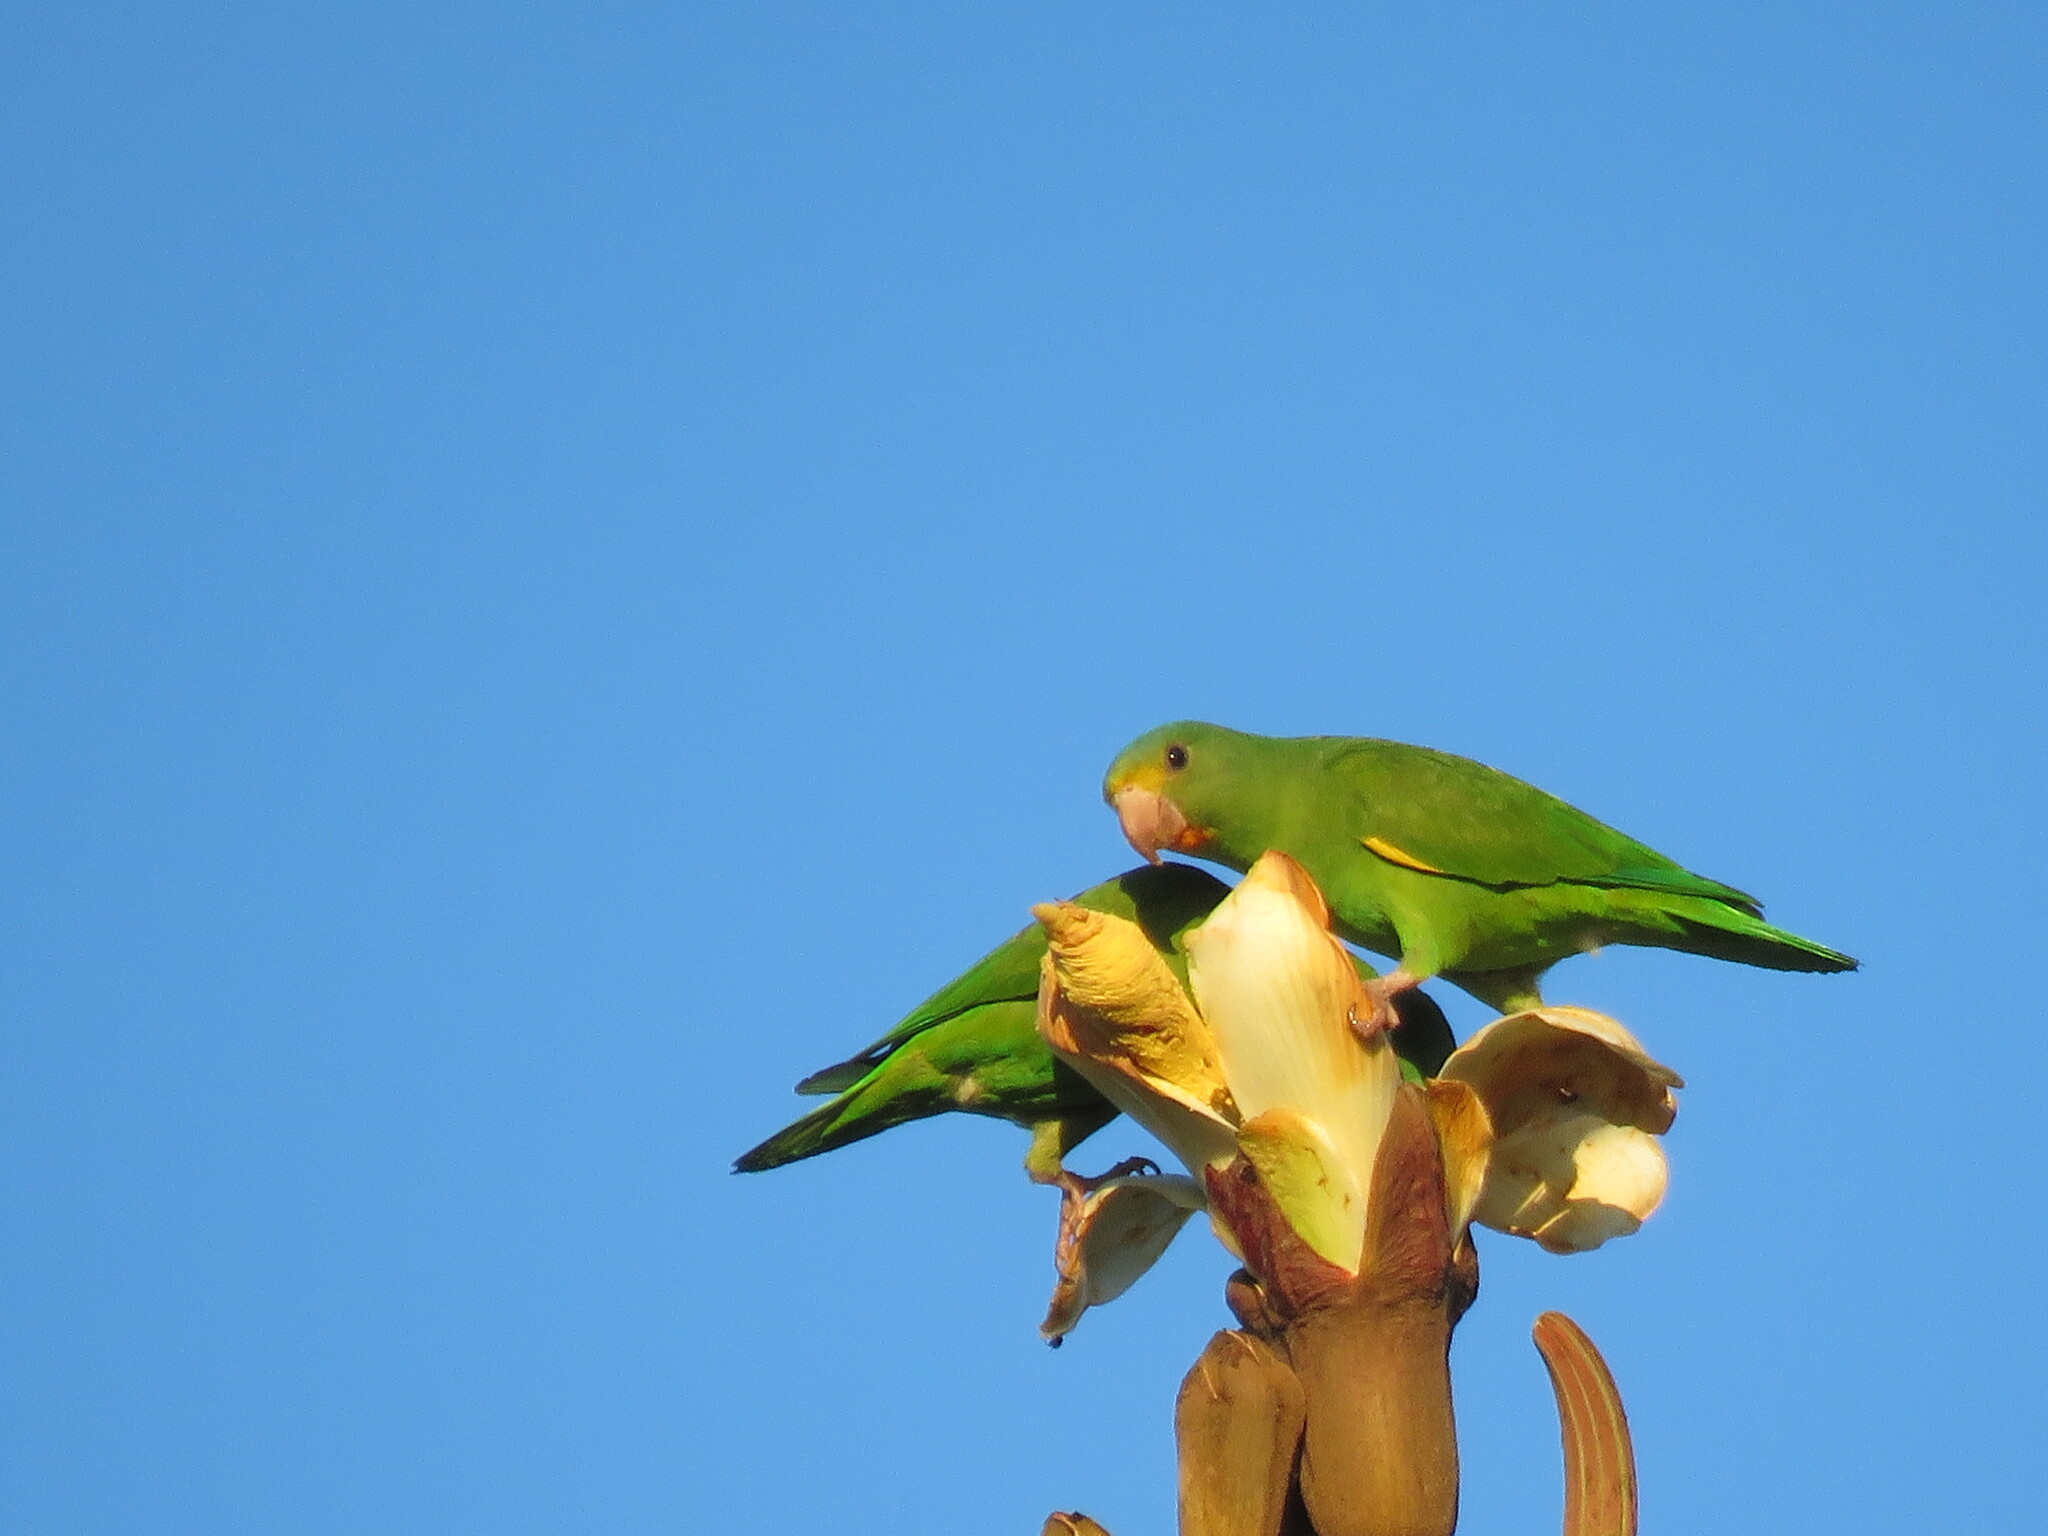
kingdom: Animalia
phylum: Chordata
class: Aves
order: Psittaciformes
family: Psittacidae
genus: Brotogeris
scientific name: Brotogeris cyanoptera
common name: Cobalt-winged parakeet
